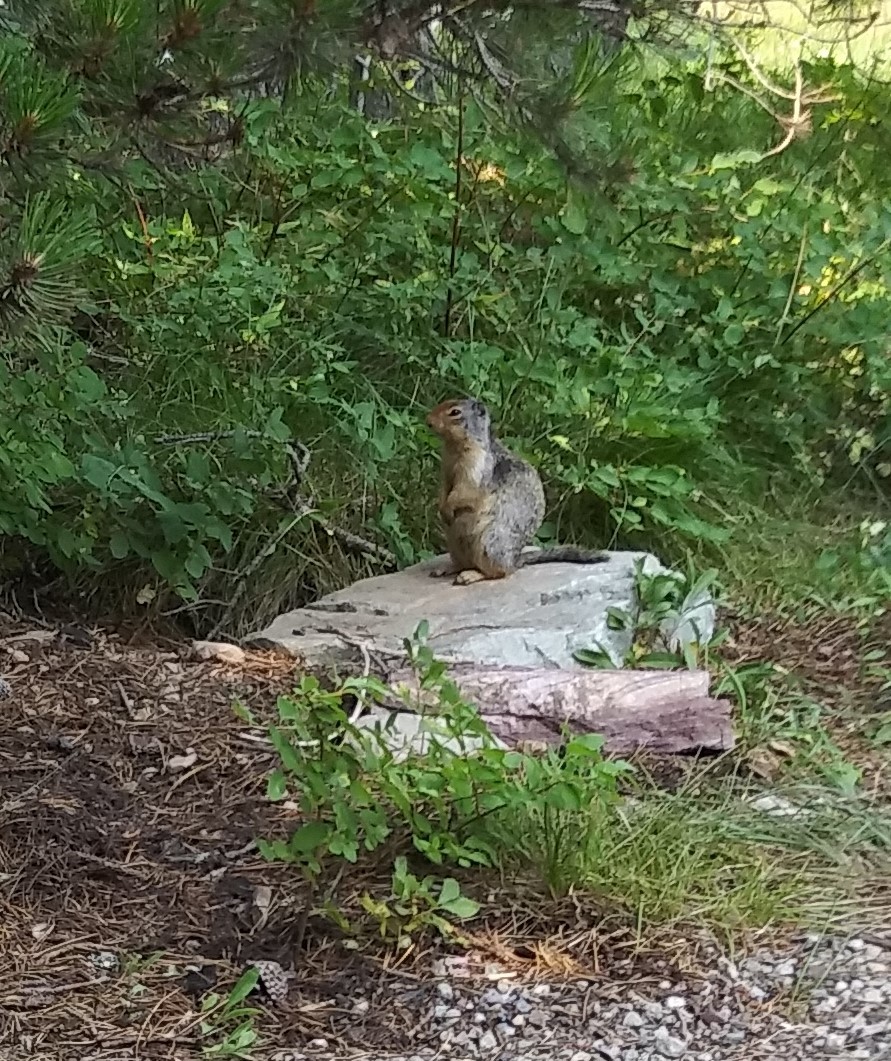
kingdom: Animalia
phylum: Chordata
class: Mammalia
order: Rodentia
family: Sciuridae
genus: Urocitellus
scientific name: Urocitellus columbianus
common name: Columbian ground squirrel
